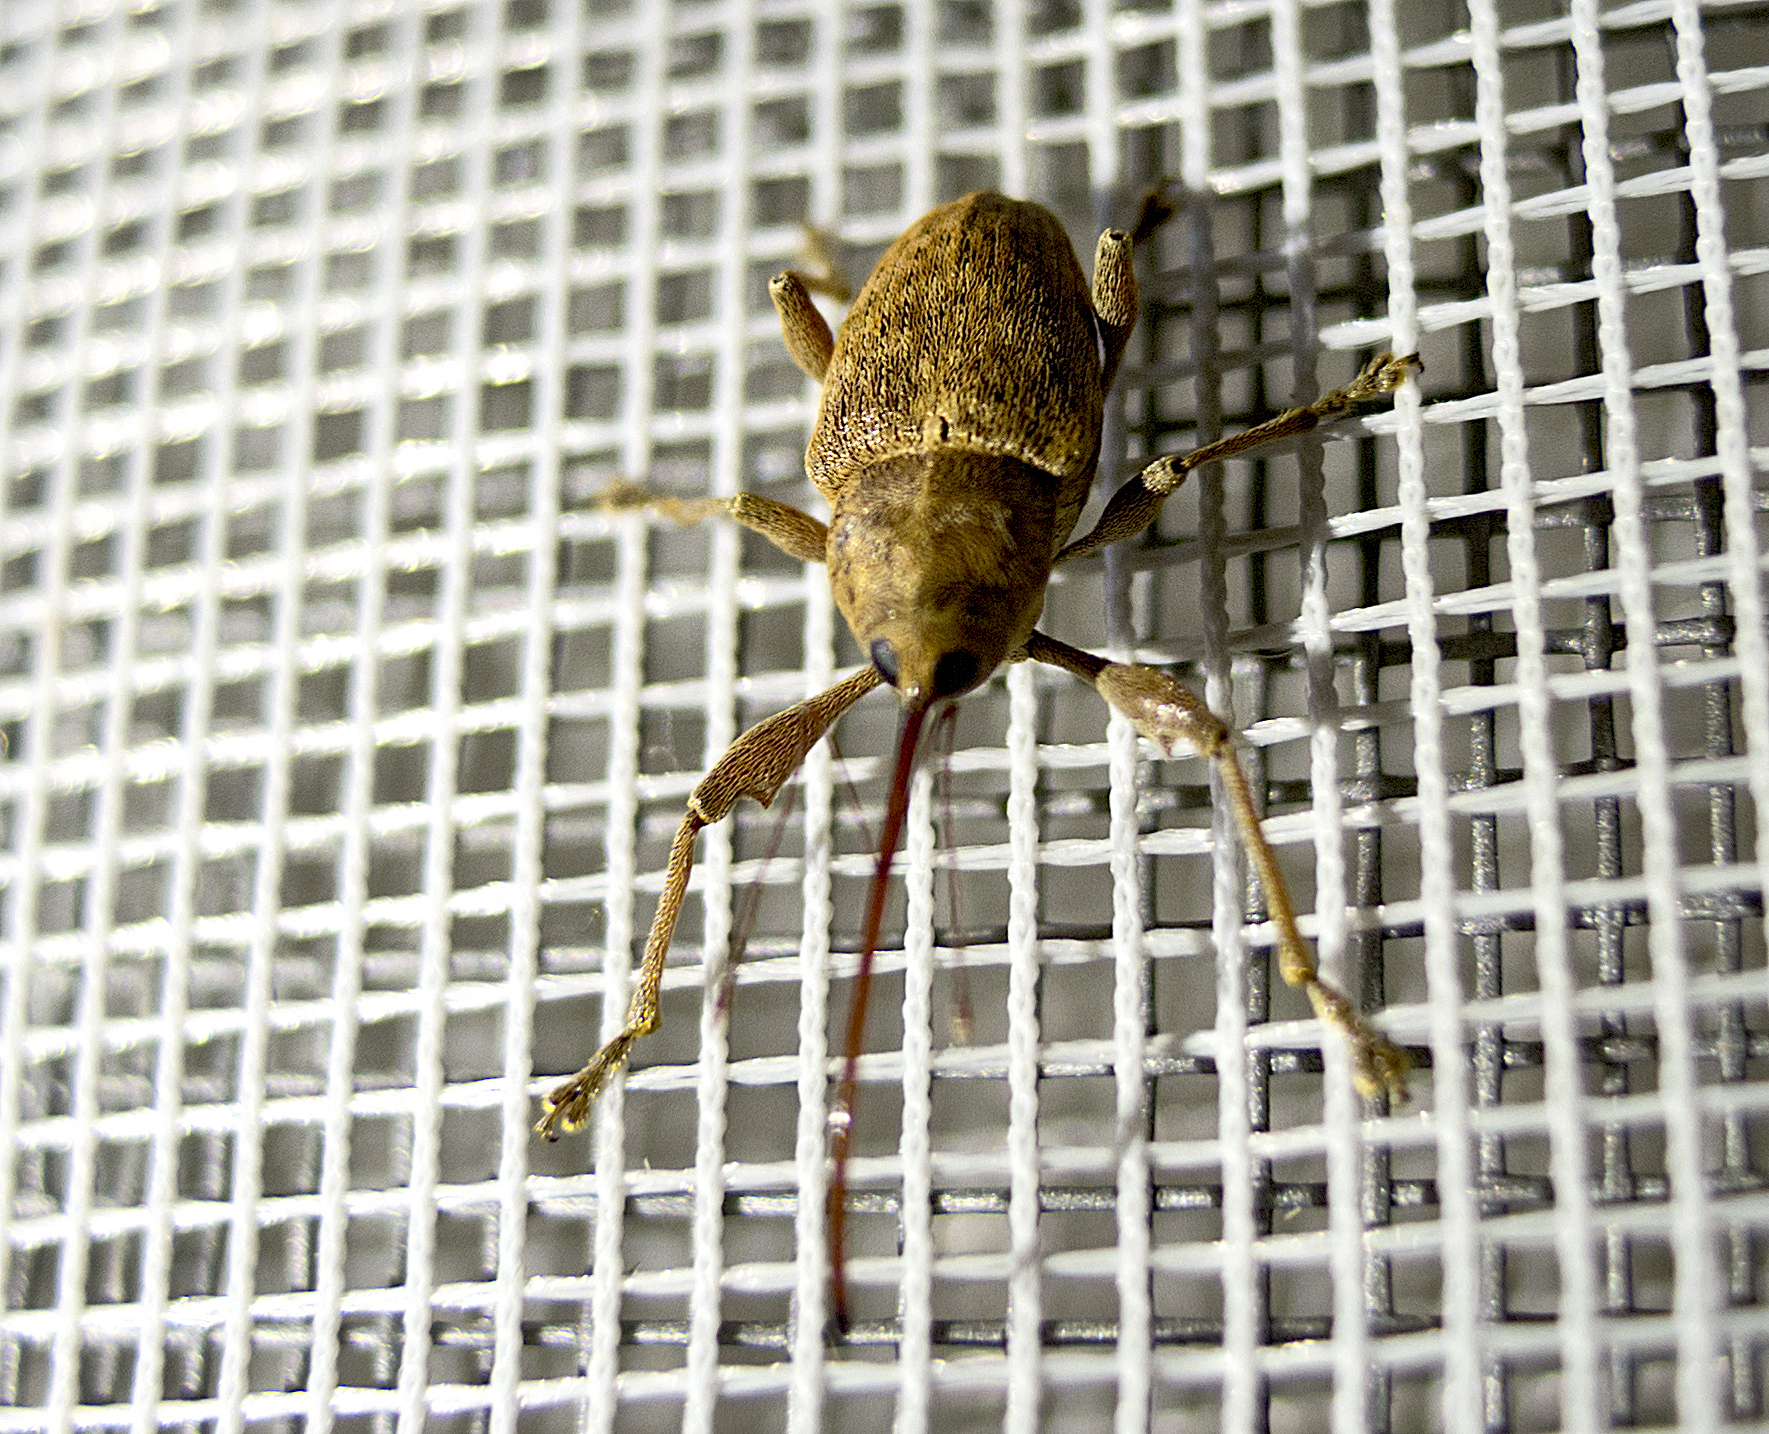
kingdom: Animalia
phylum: Arthropoda
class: Insecta
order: Coleoptera
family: Curculionidae
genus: Curculio
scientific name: Curculio elephas
